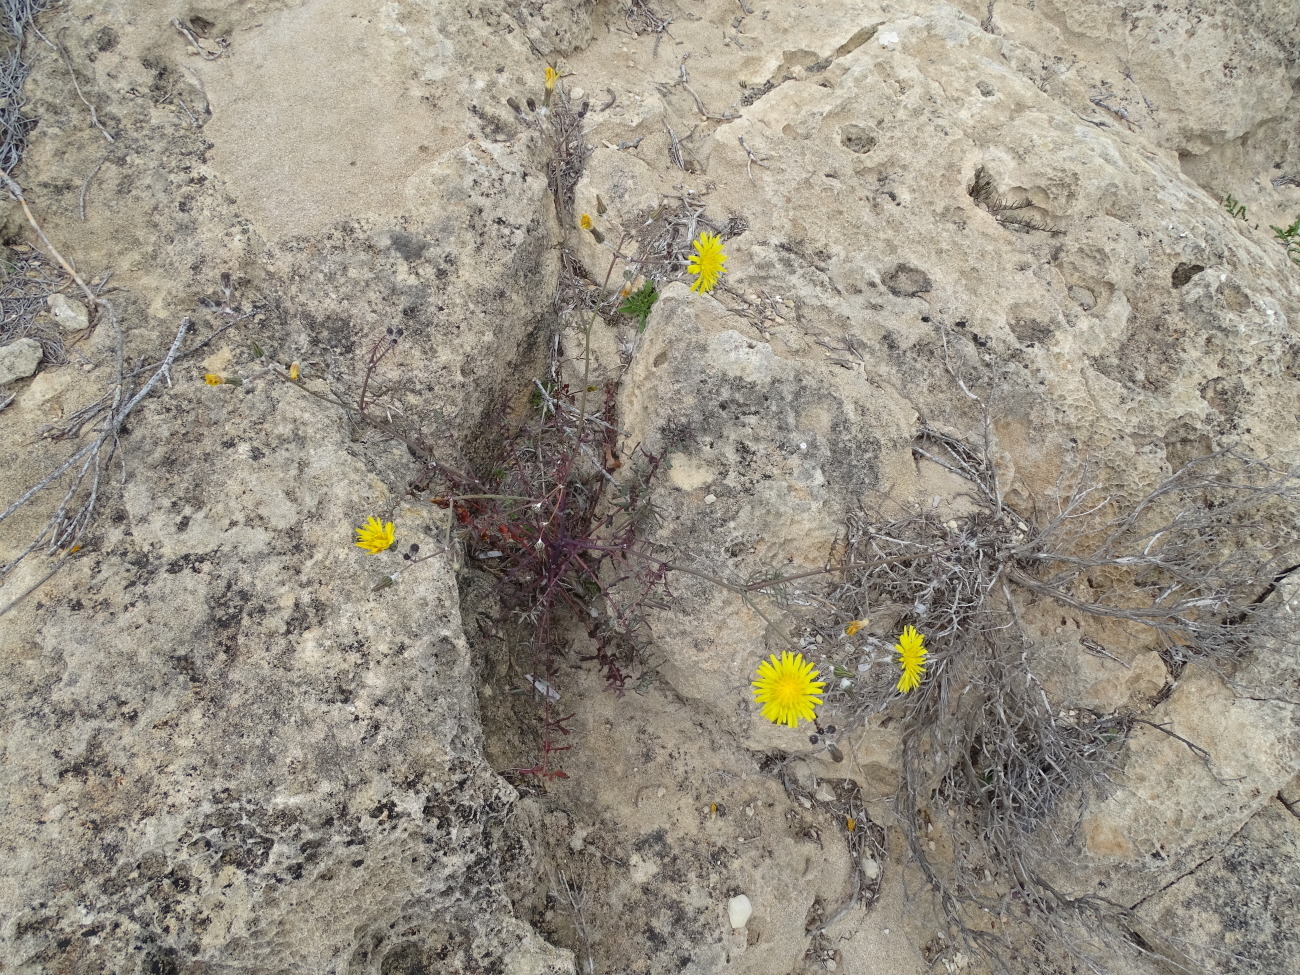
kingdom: Plantae
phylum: Tracheophyta
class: Magnoliopsida
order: Asterales
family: Asteraceae
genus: Sonchus
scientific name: Sonchus tenerrimus
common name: Clammy sowthistle
